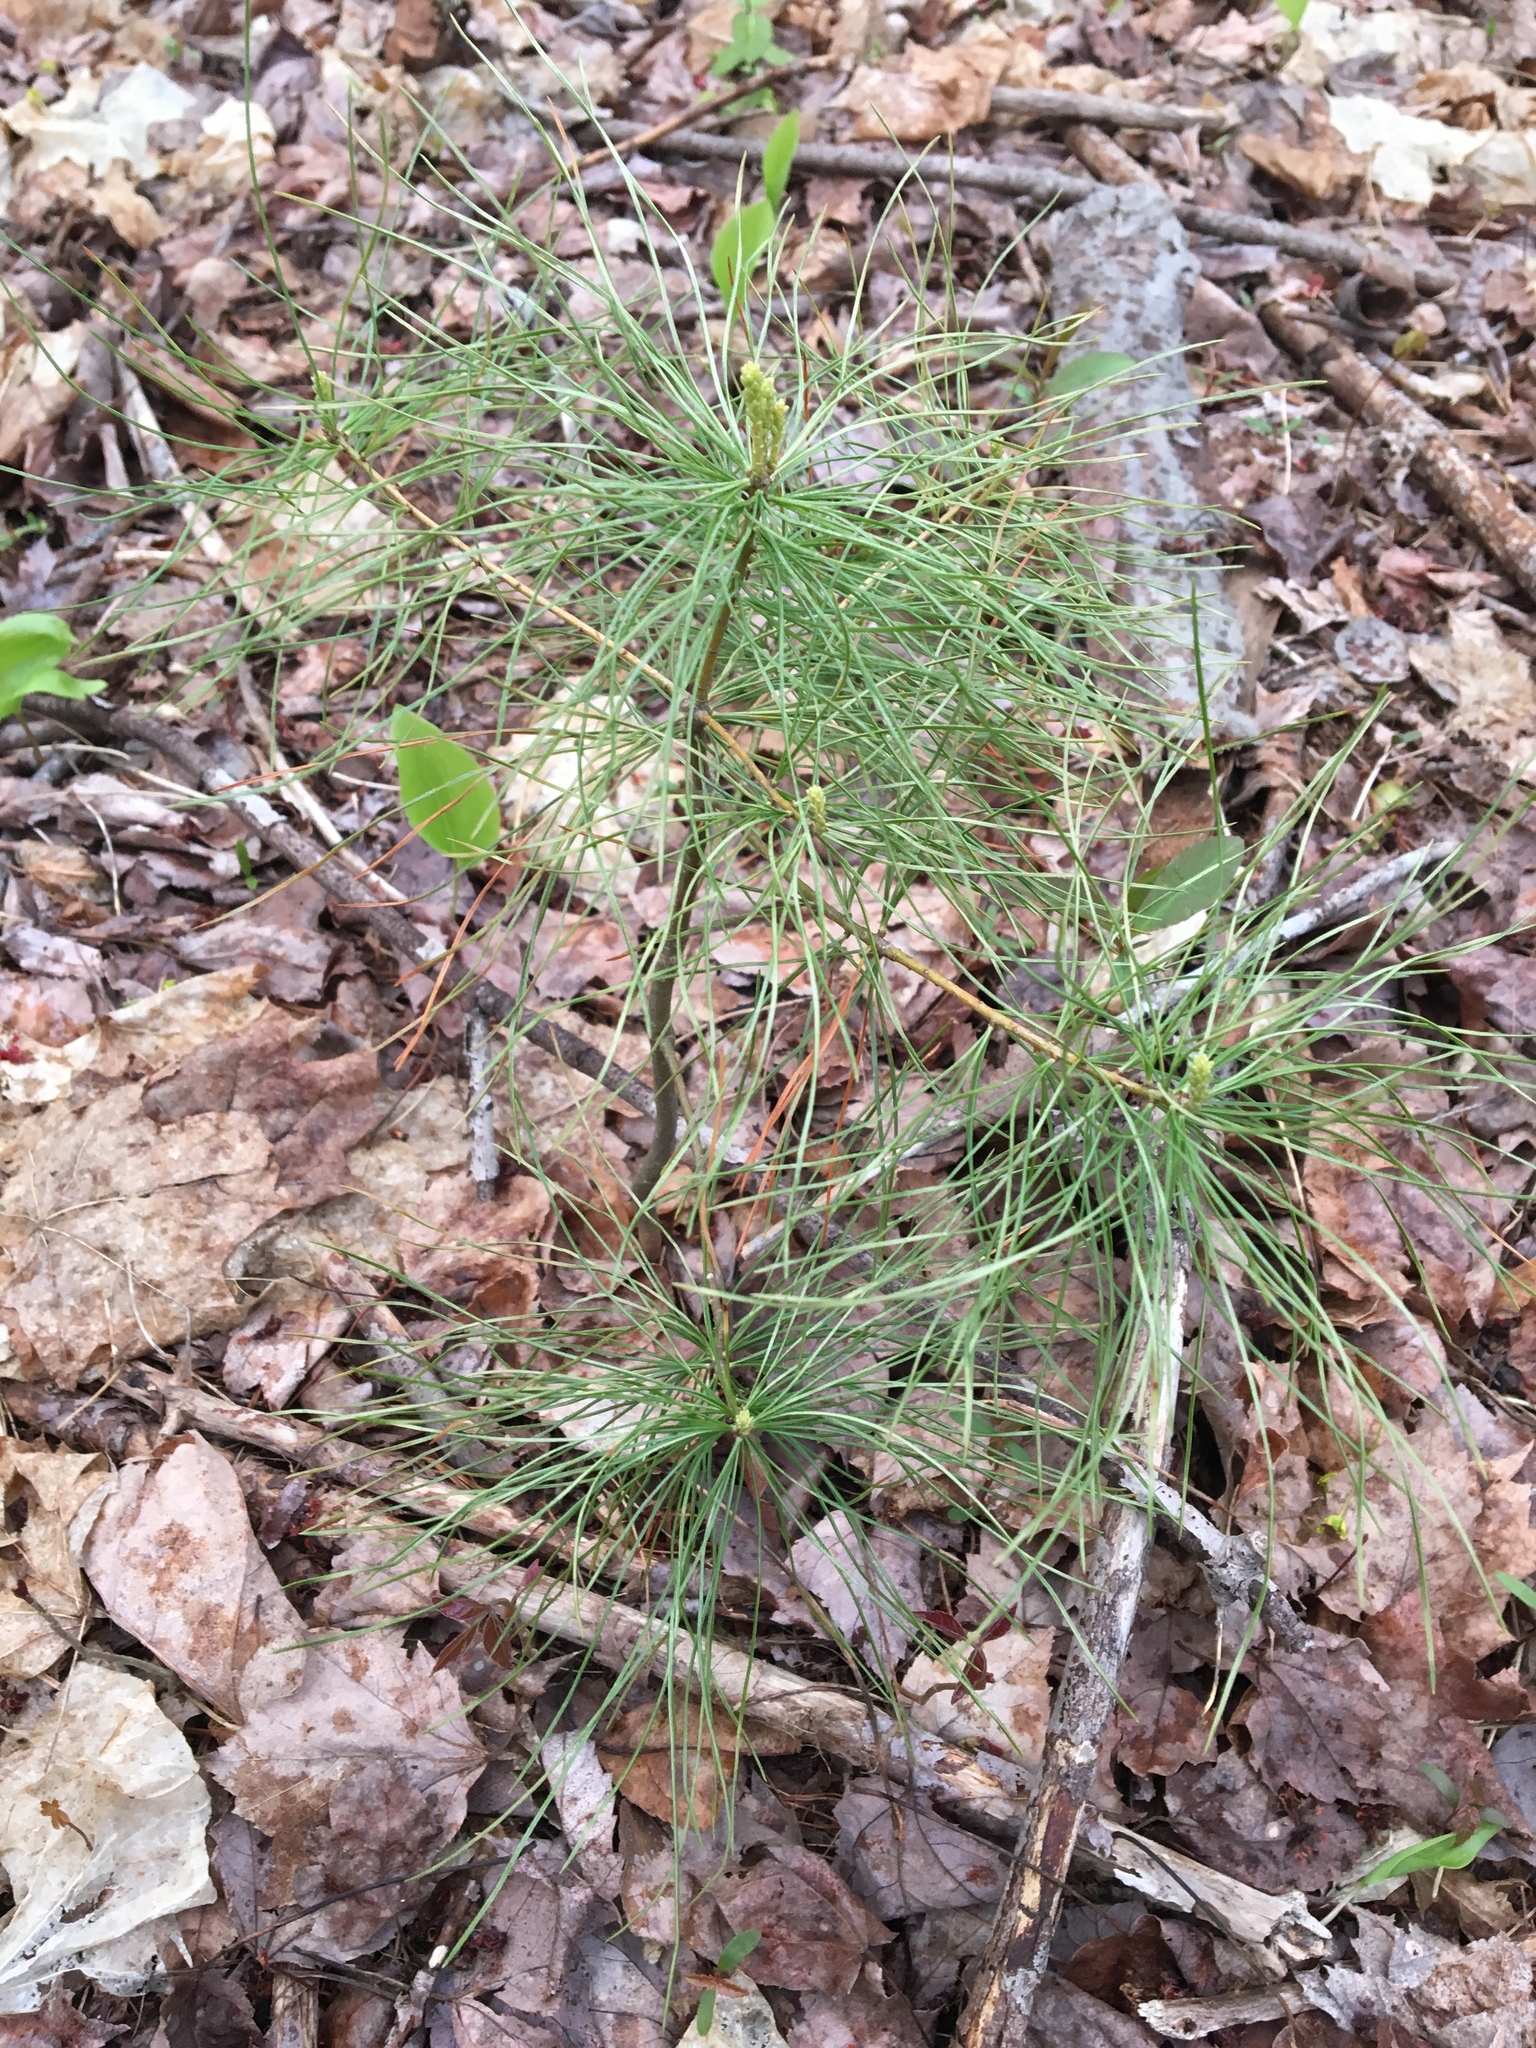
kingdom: Plantae
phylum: Tracheophyta
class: Pinopsida
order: Pinales
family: Pinaceae
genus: Pinus
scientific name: Pinus strobus
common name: Weymouth pine
